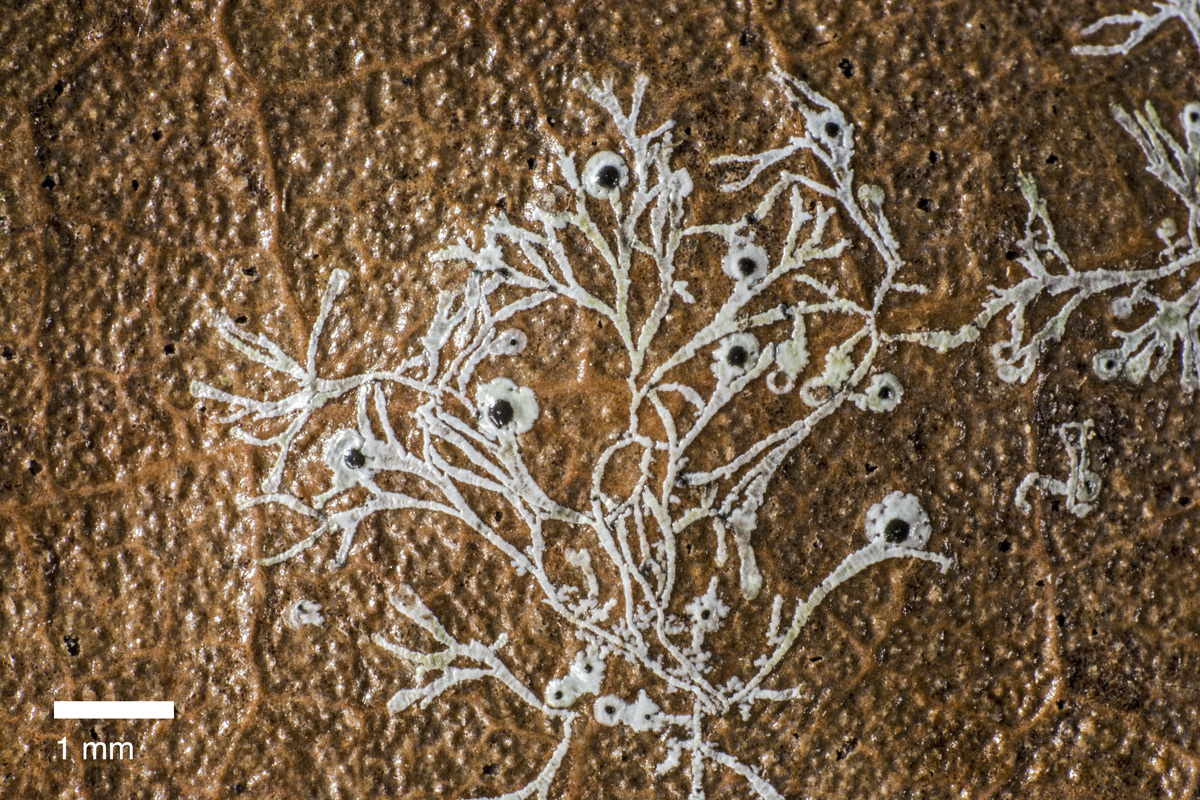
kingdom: Fungi
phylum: Ascomycota
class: Dothideomycetes
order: Strigulales
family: Strigulaceae
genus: Strigula
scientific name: Strigula
